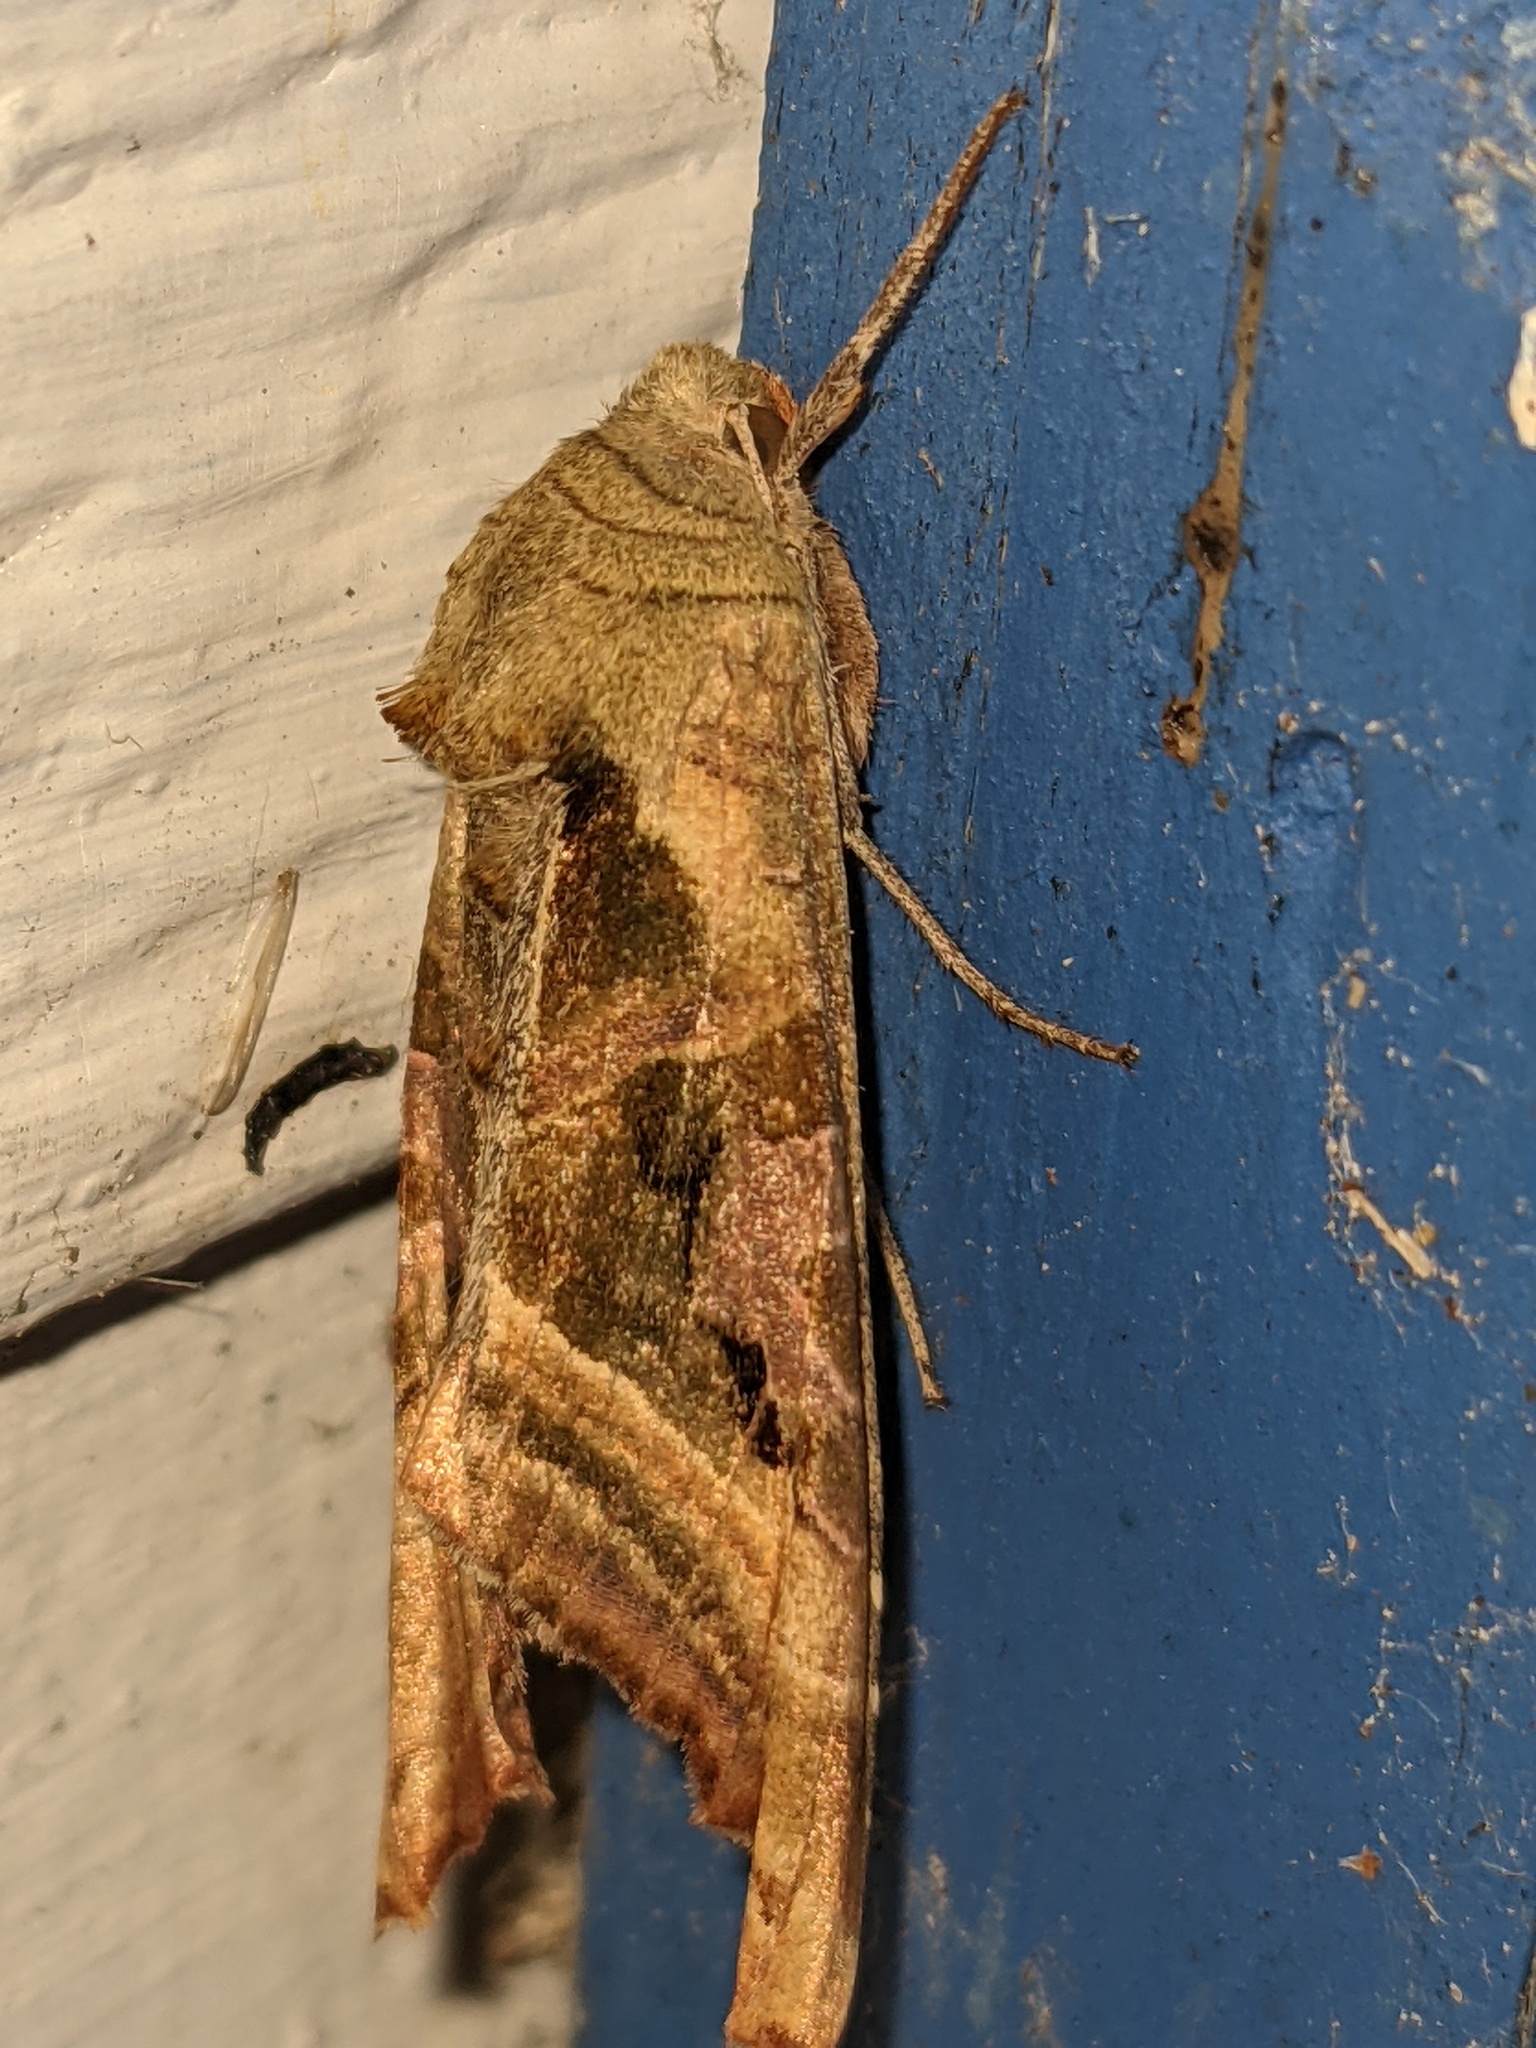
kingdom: Animalia
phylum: Arthropoda
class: Insecta
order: Lepidoptera
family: Noctuidae
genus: Phlogophora
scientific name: Phlogophora iris
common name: Olive angle shades
